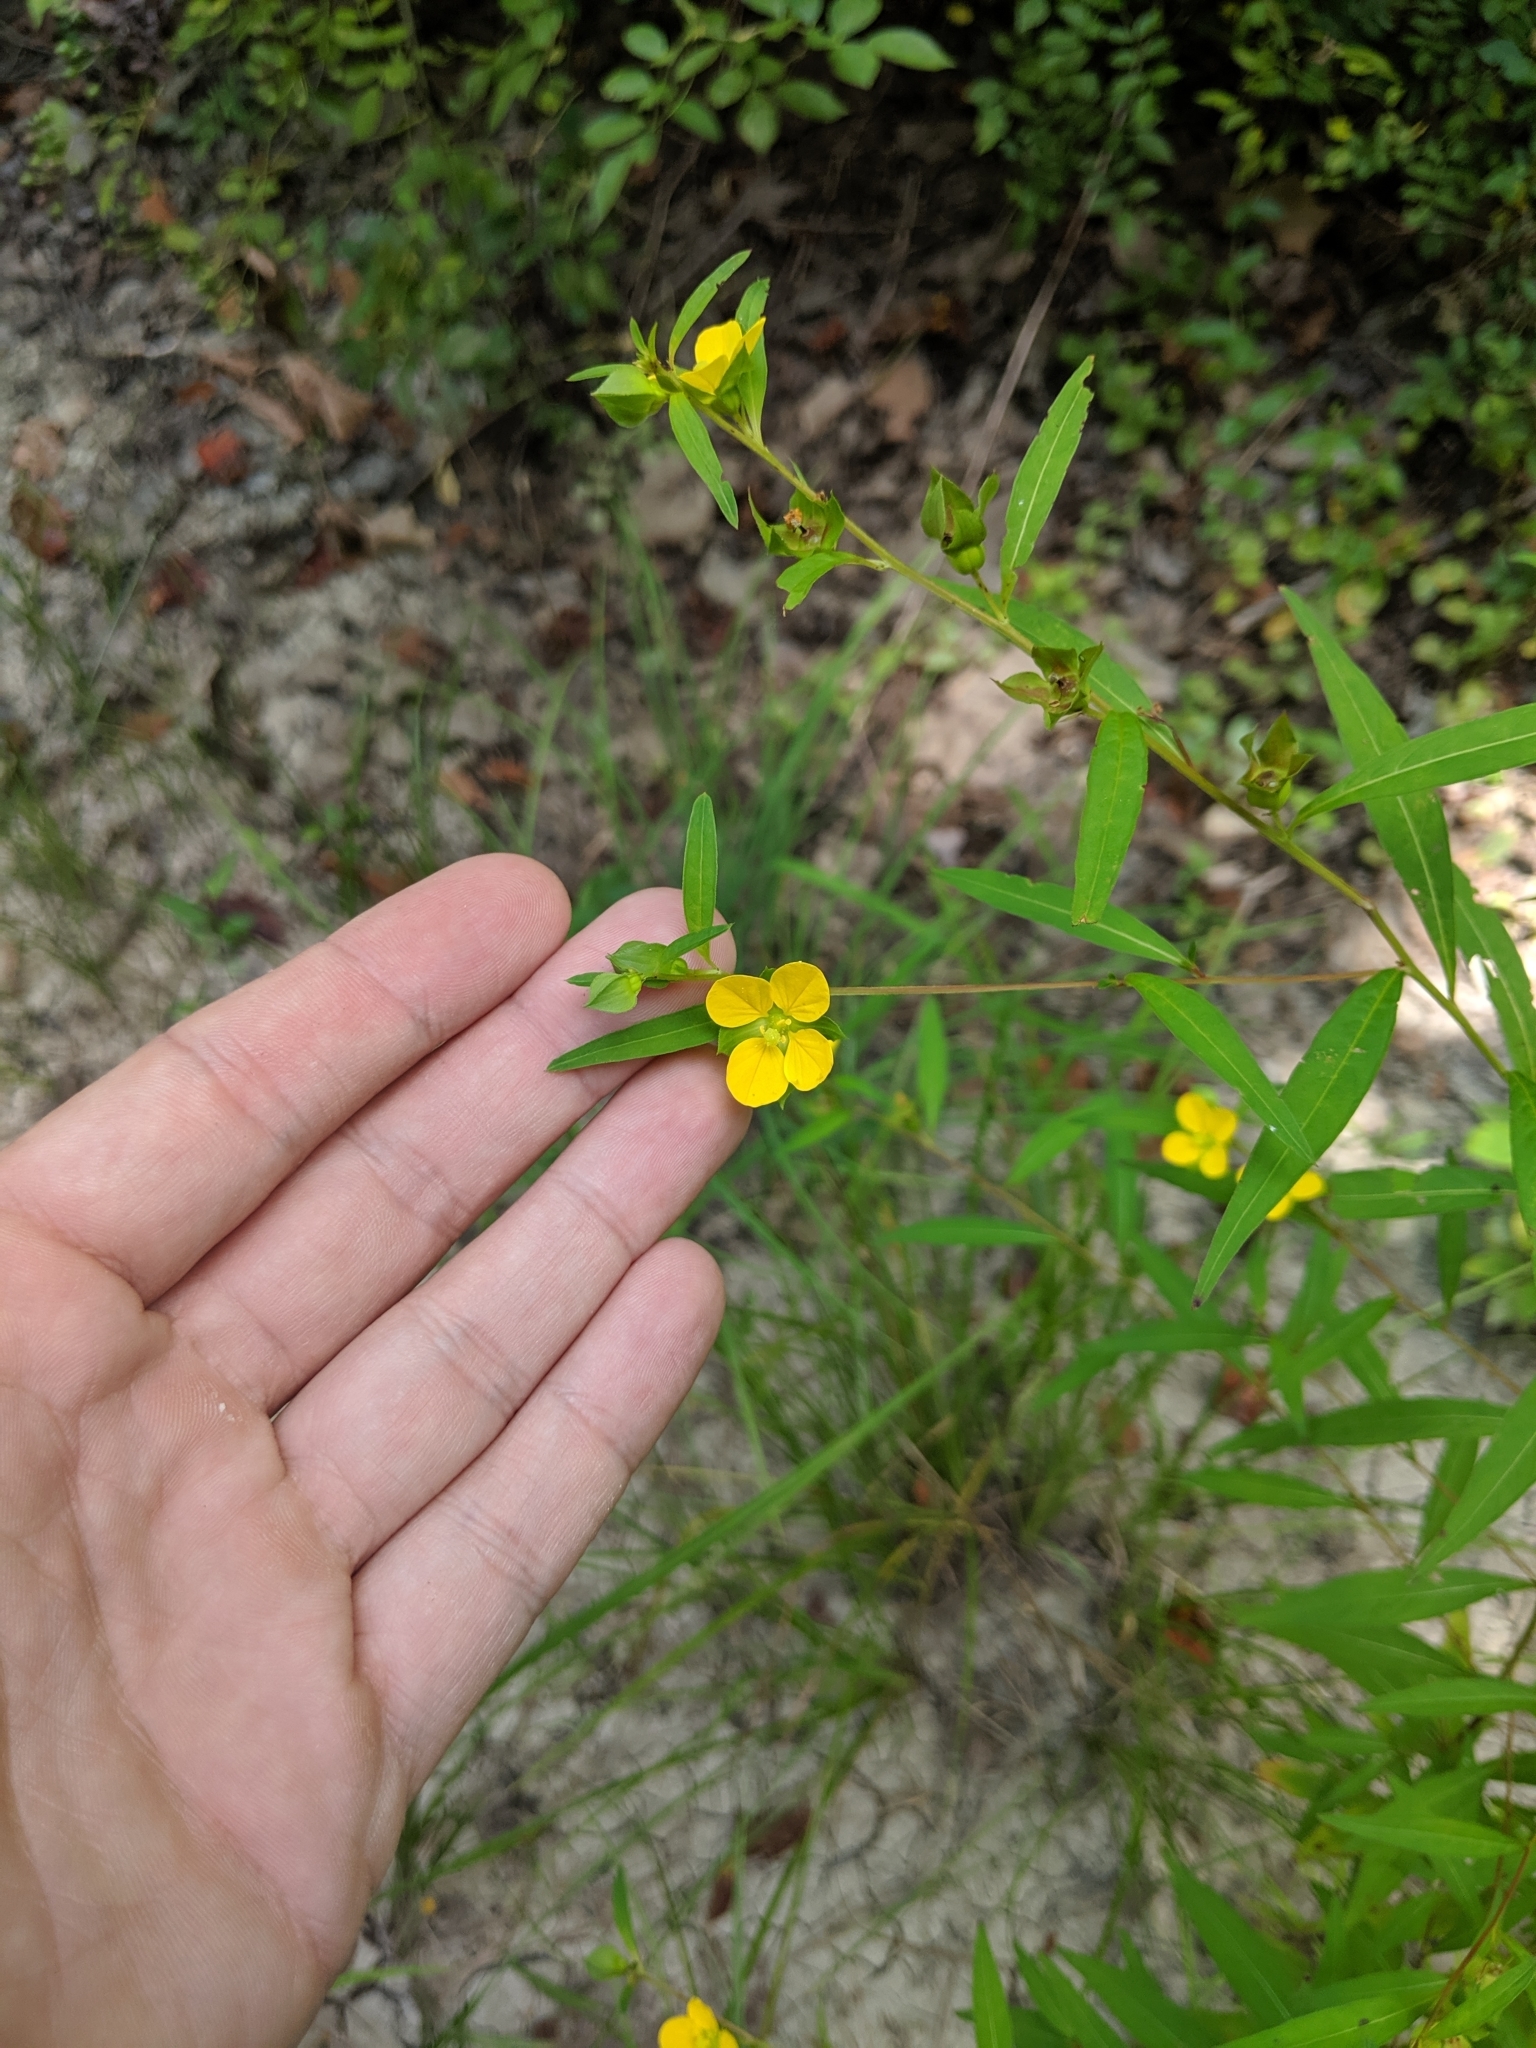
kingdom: Plantae
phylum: Tracheophyta
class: Magnoliopsida
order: Myrtales
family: Onagraceae
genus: Ludwigia
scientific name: Ludwigia alternifolia
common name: Rattlebox
